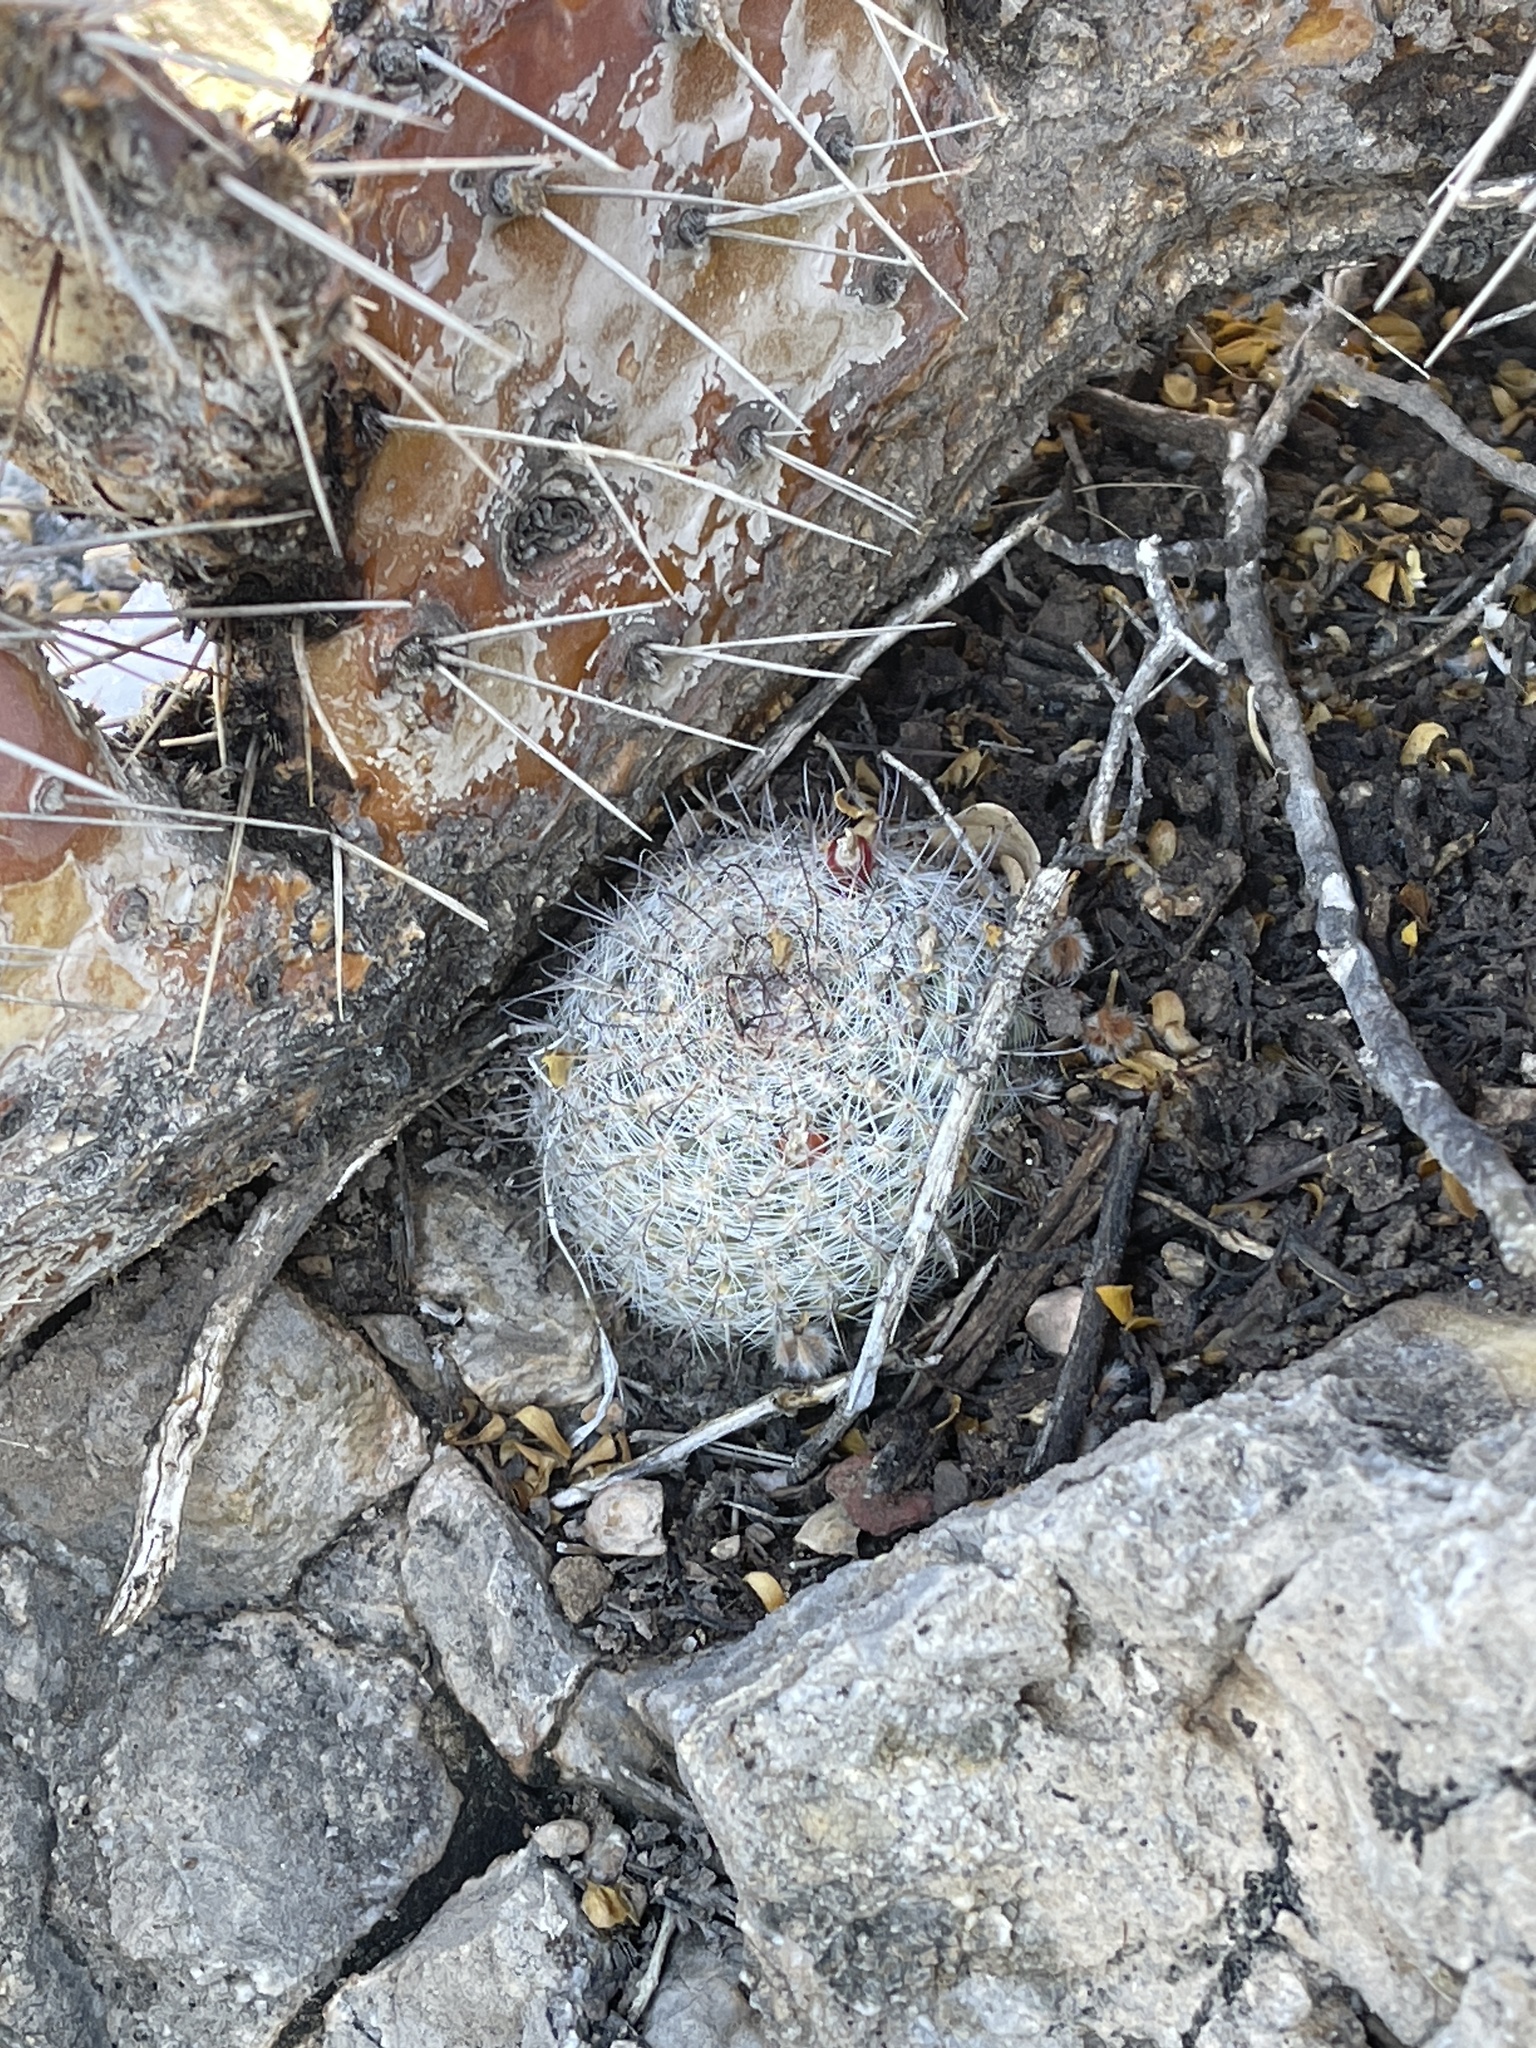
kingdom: Plantae
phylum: Tracheophyta
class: Magnoliopsida
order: Caryophyllales
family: Cactaceae
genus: Cochemiea
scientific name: Cochemiea grahamii
